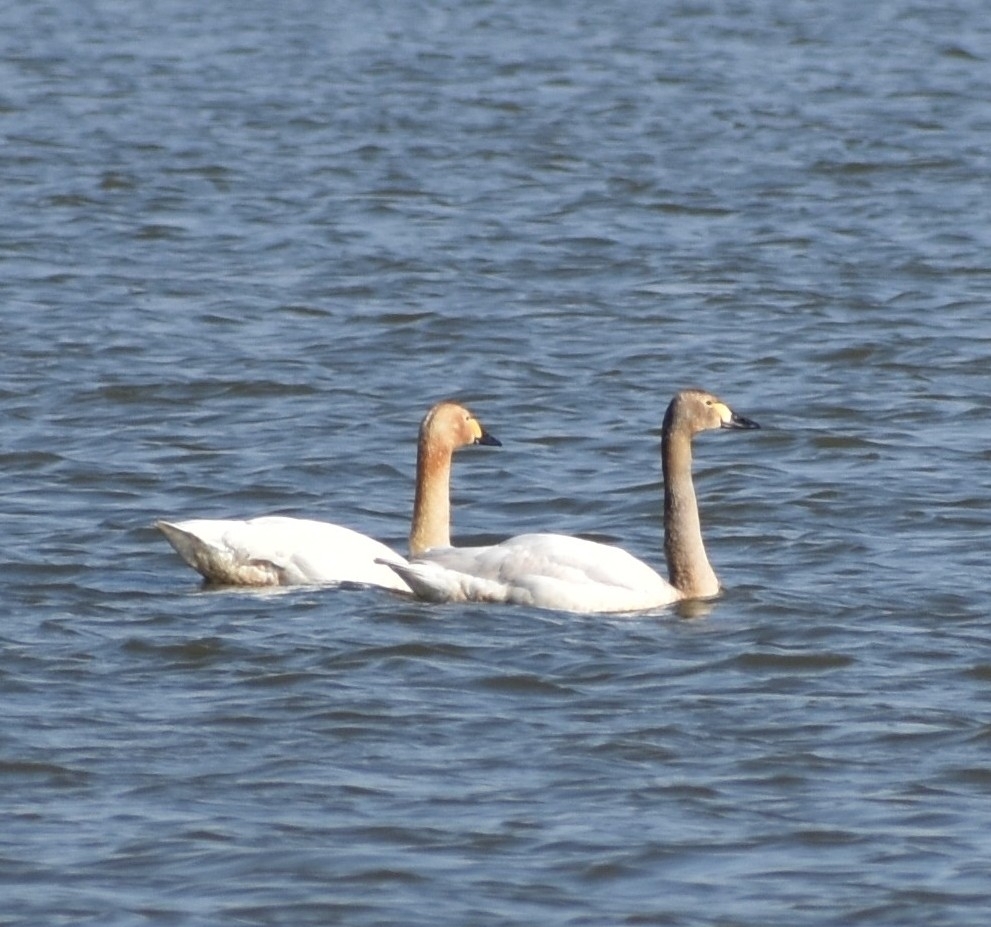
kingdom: Animalia
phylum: Chordata
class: Aves
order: Anseriformes
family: Anatidae
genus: Cygnus
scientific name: Cygnus columbianus
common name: Tundra swan
